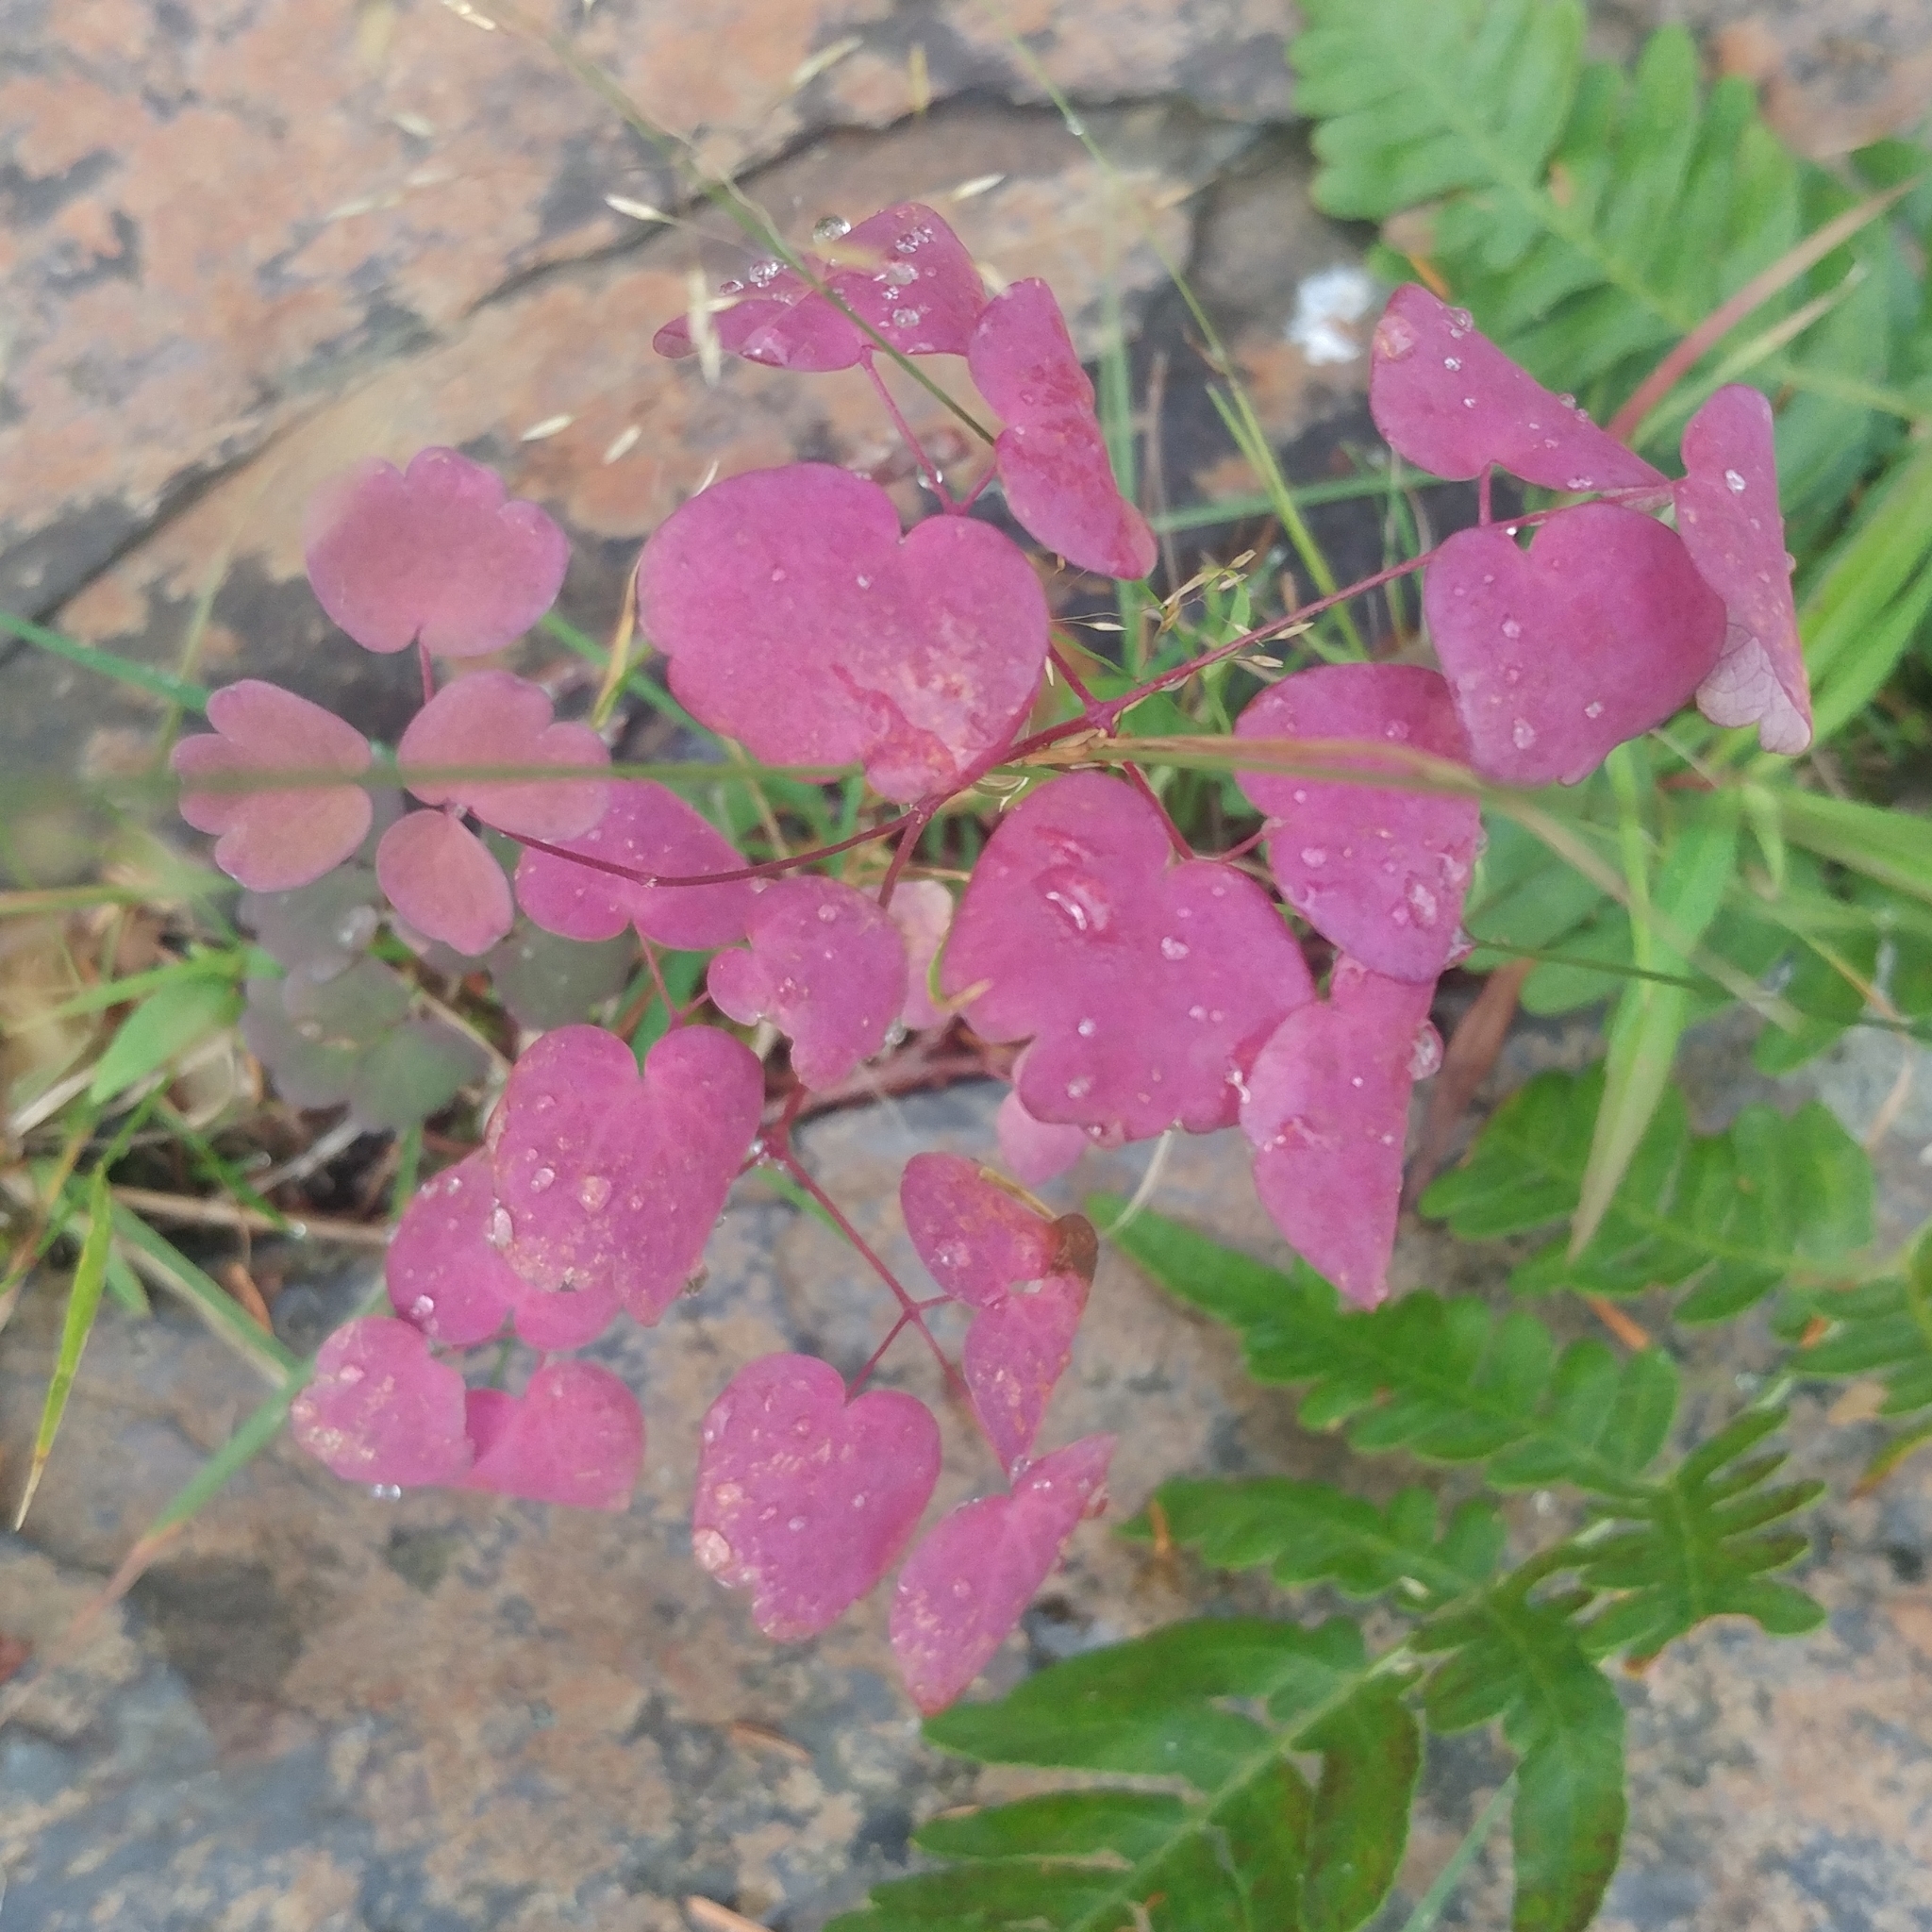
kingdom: Plantae
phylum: Tracheophyta
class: Magnoliopsida
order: Ranunculales
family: Ranunculaceae
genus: Thalictrum
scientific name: Thalictrum pubescens
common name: King-of-the-meadow
